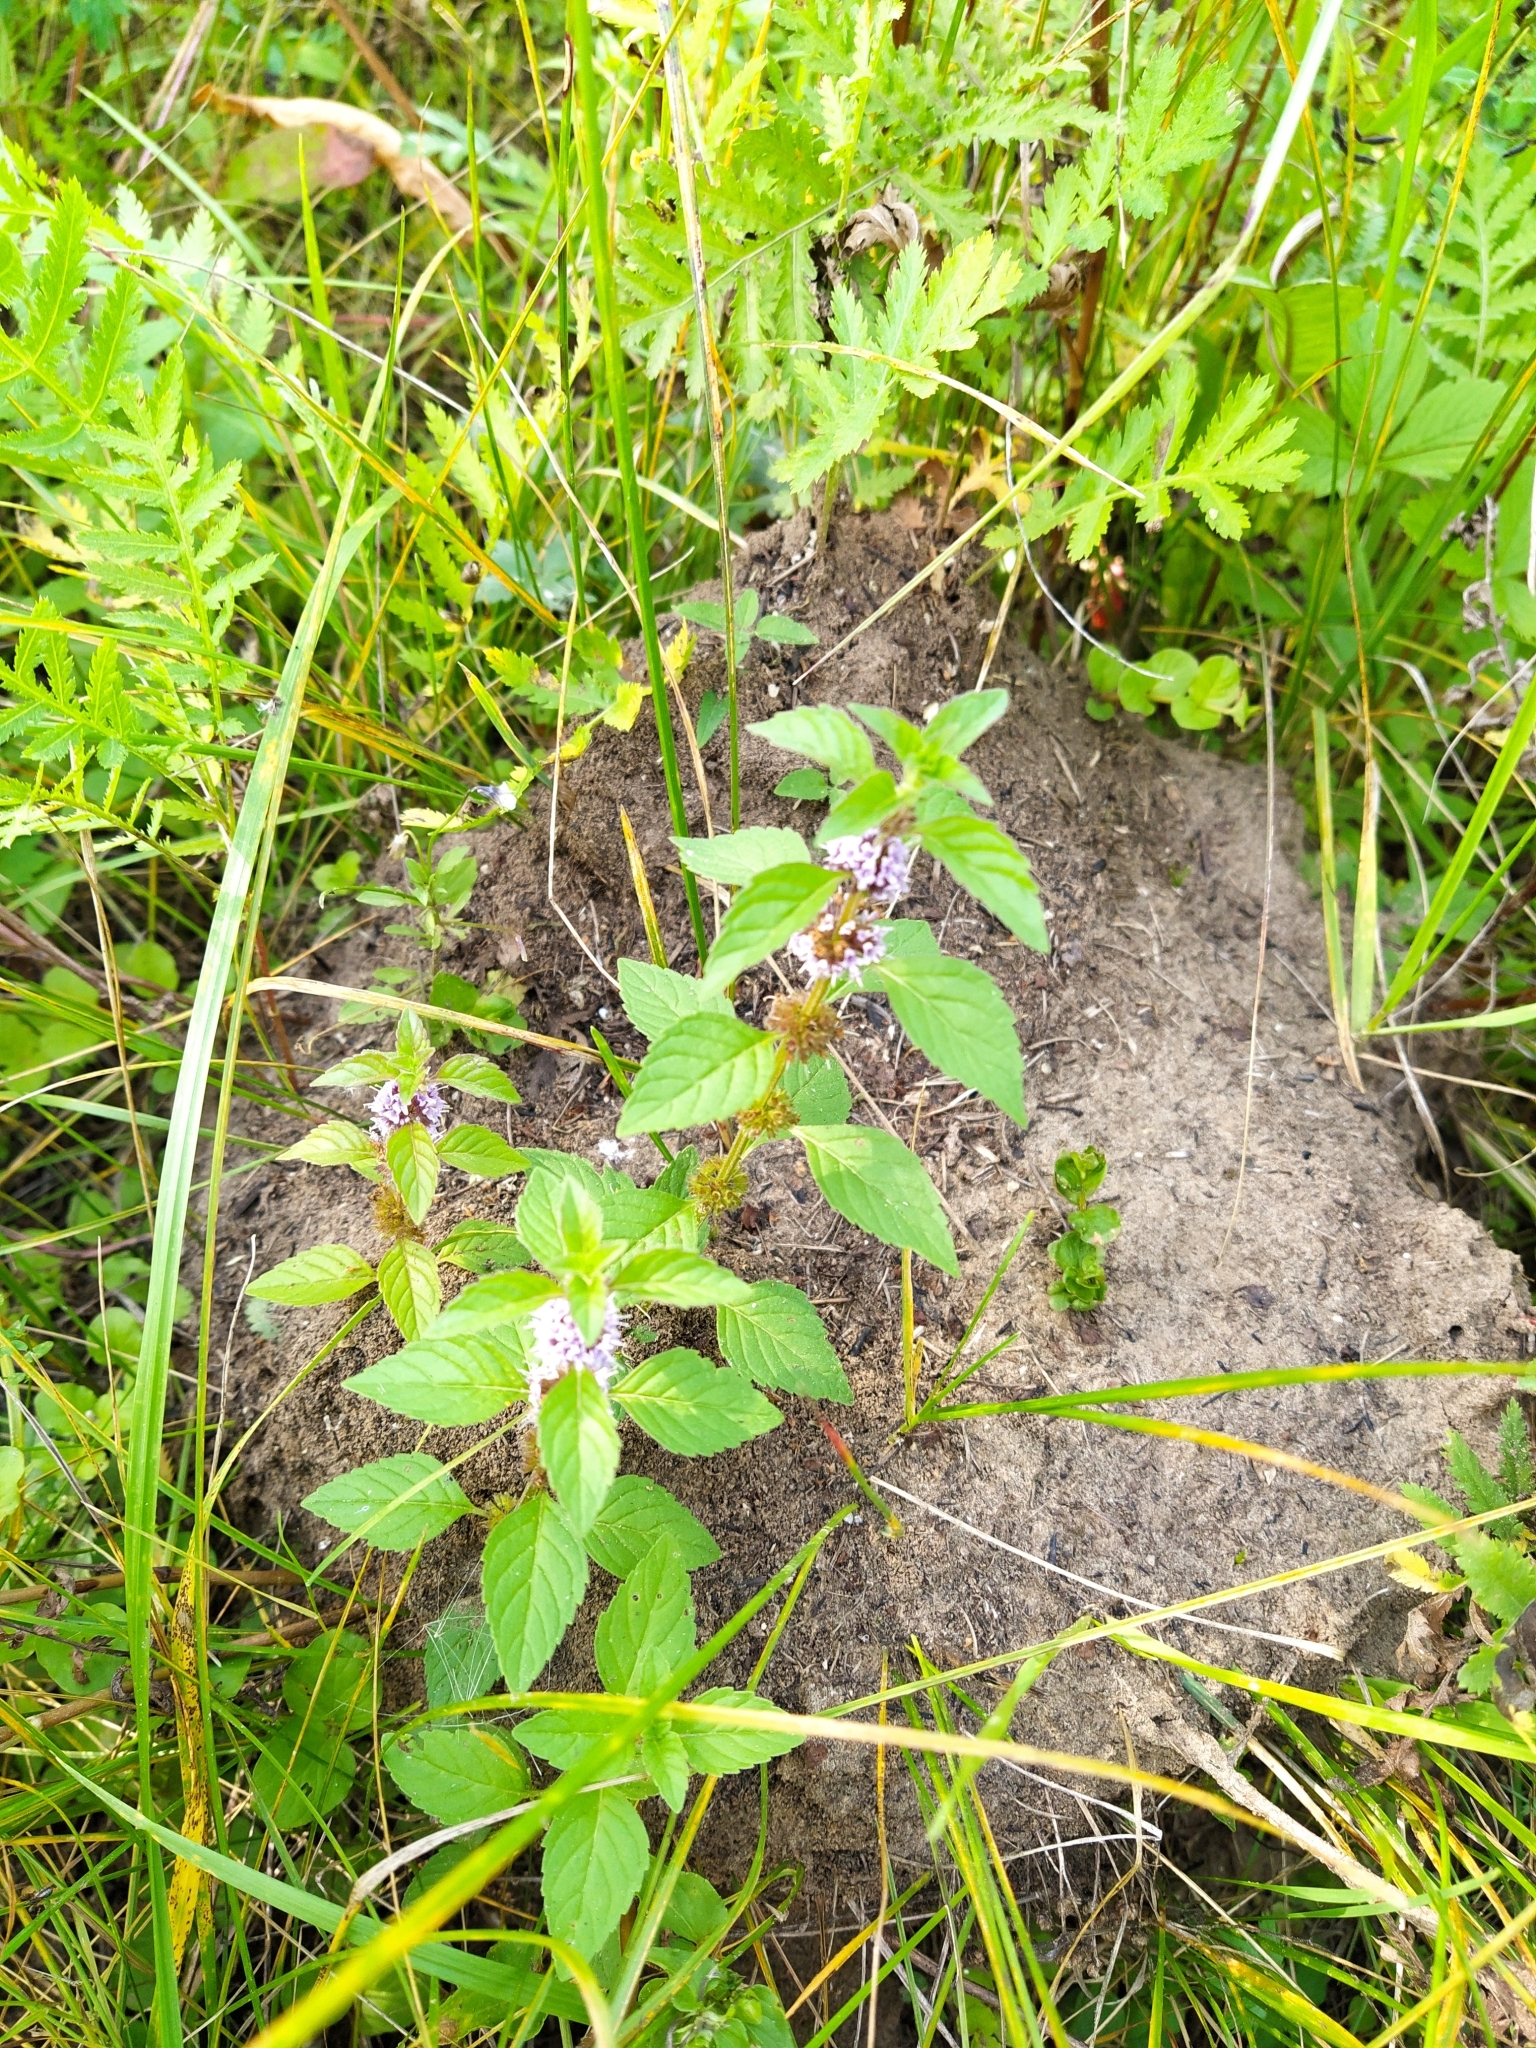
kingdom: Plantae
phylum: Tracheophyta
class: Magnoliopsida
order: Lamiales
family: Lamiaceae
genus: Mentha
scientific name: Mentha arvensis
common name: Corn mint
